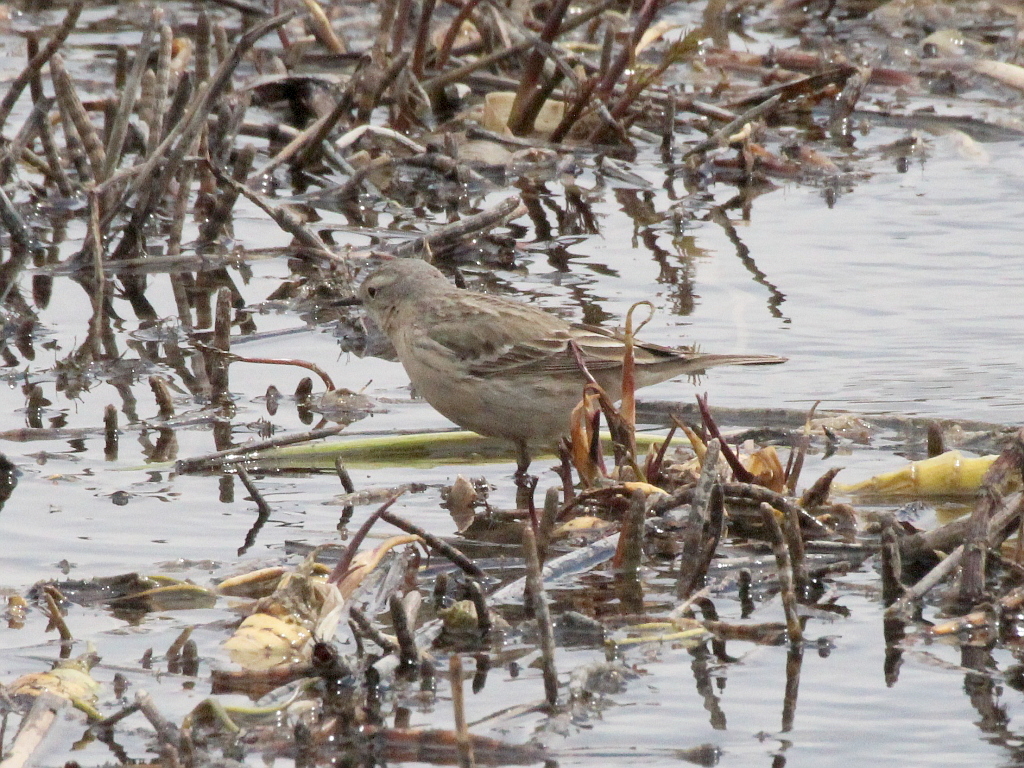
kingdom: Animalia
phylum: Chordata
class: Aves
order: Passeriformes
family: Motacillidae
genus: Anthus
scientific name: Anthus spinoletta
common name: Water pipit
